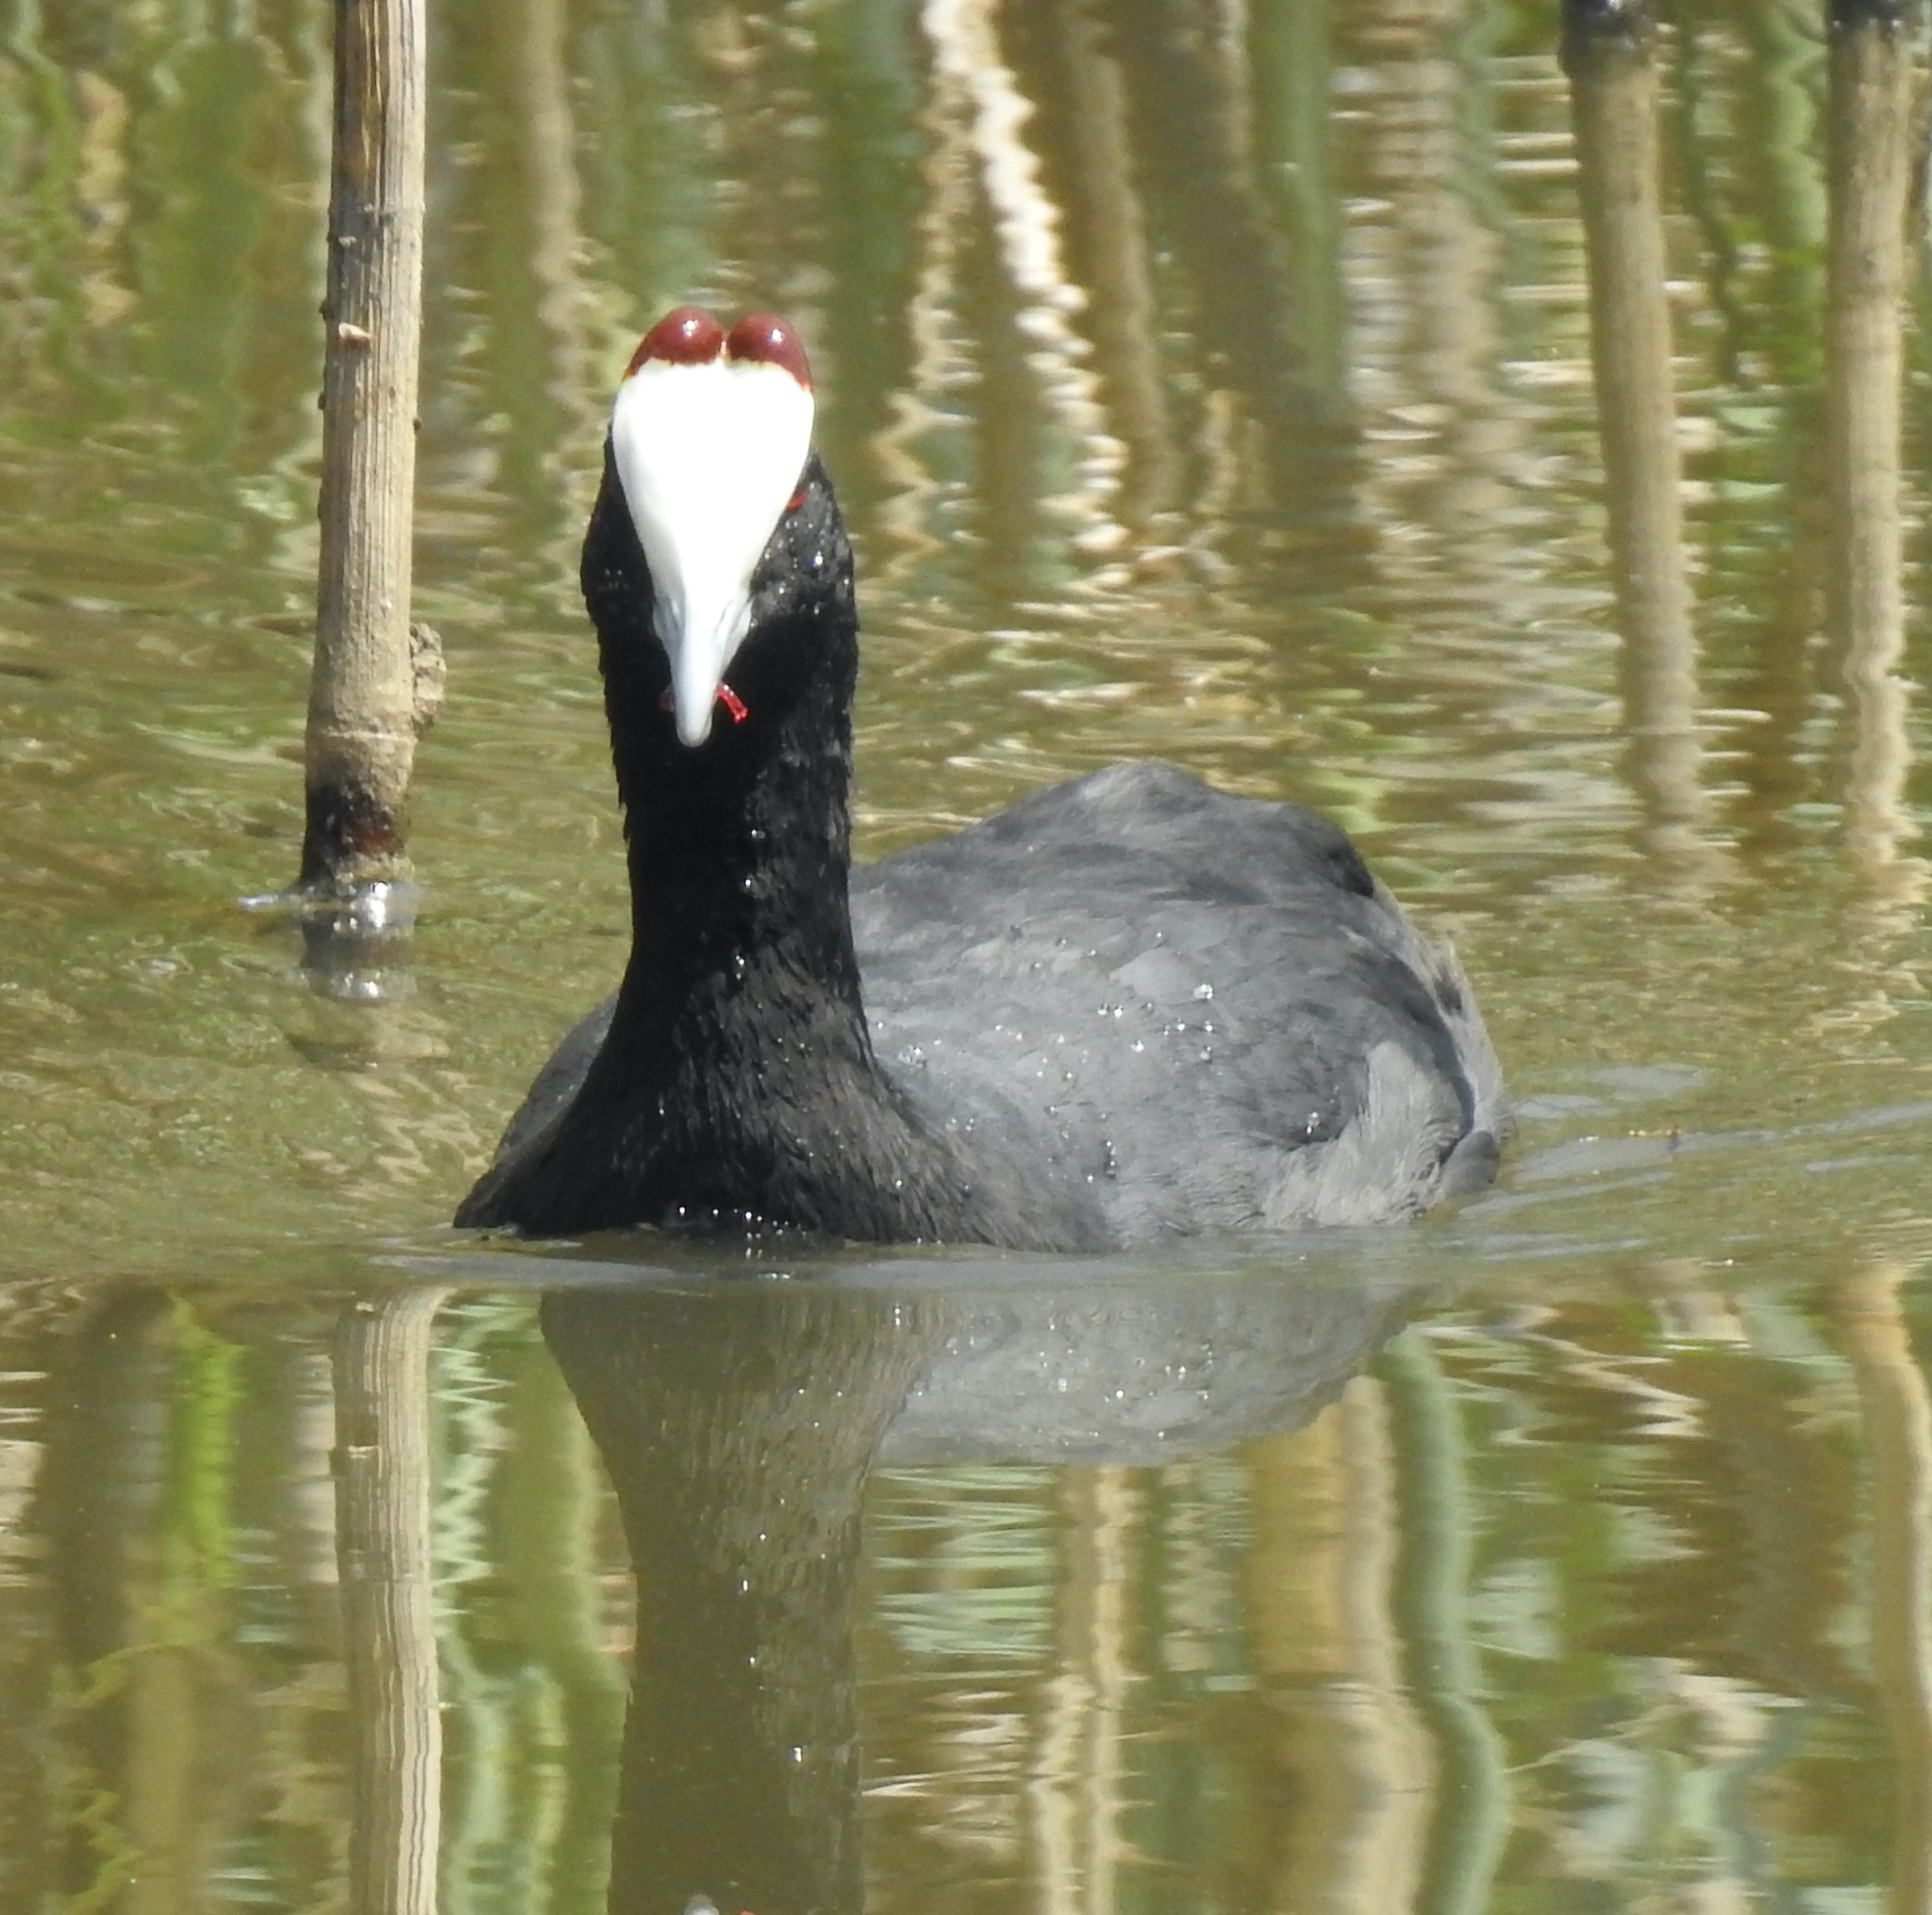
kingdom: Animalia
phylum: Chordata
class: Aves
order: Gruiformes
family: Rallidae
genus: Fulica
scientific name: Fulica cristata
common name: Red-knobbed coot
